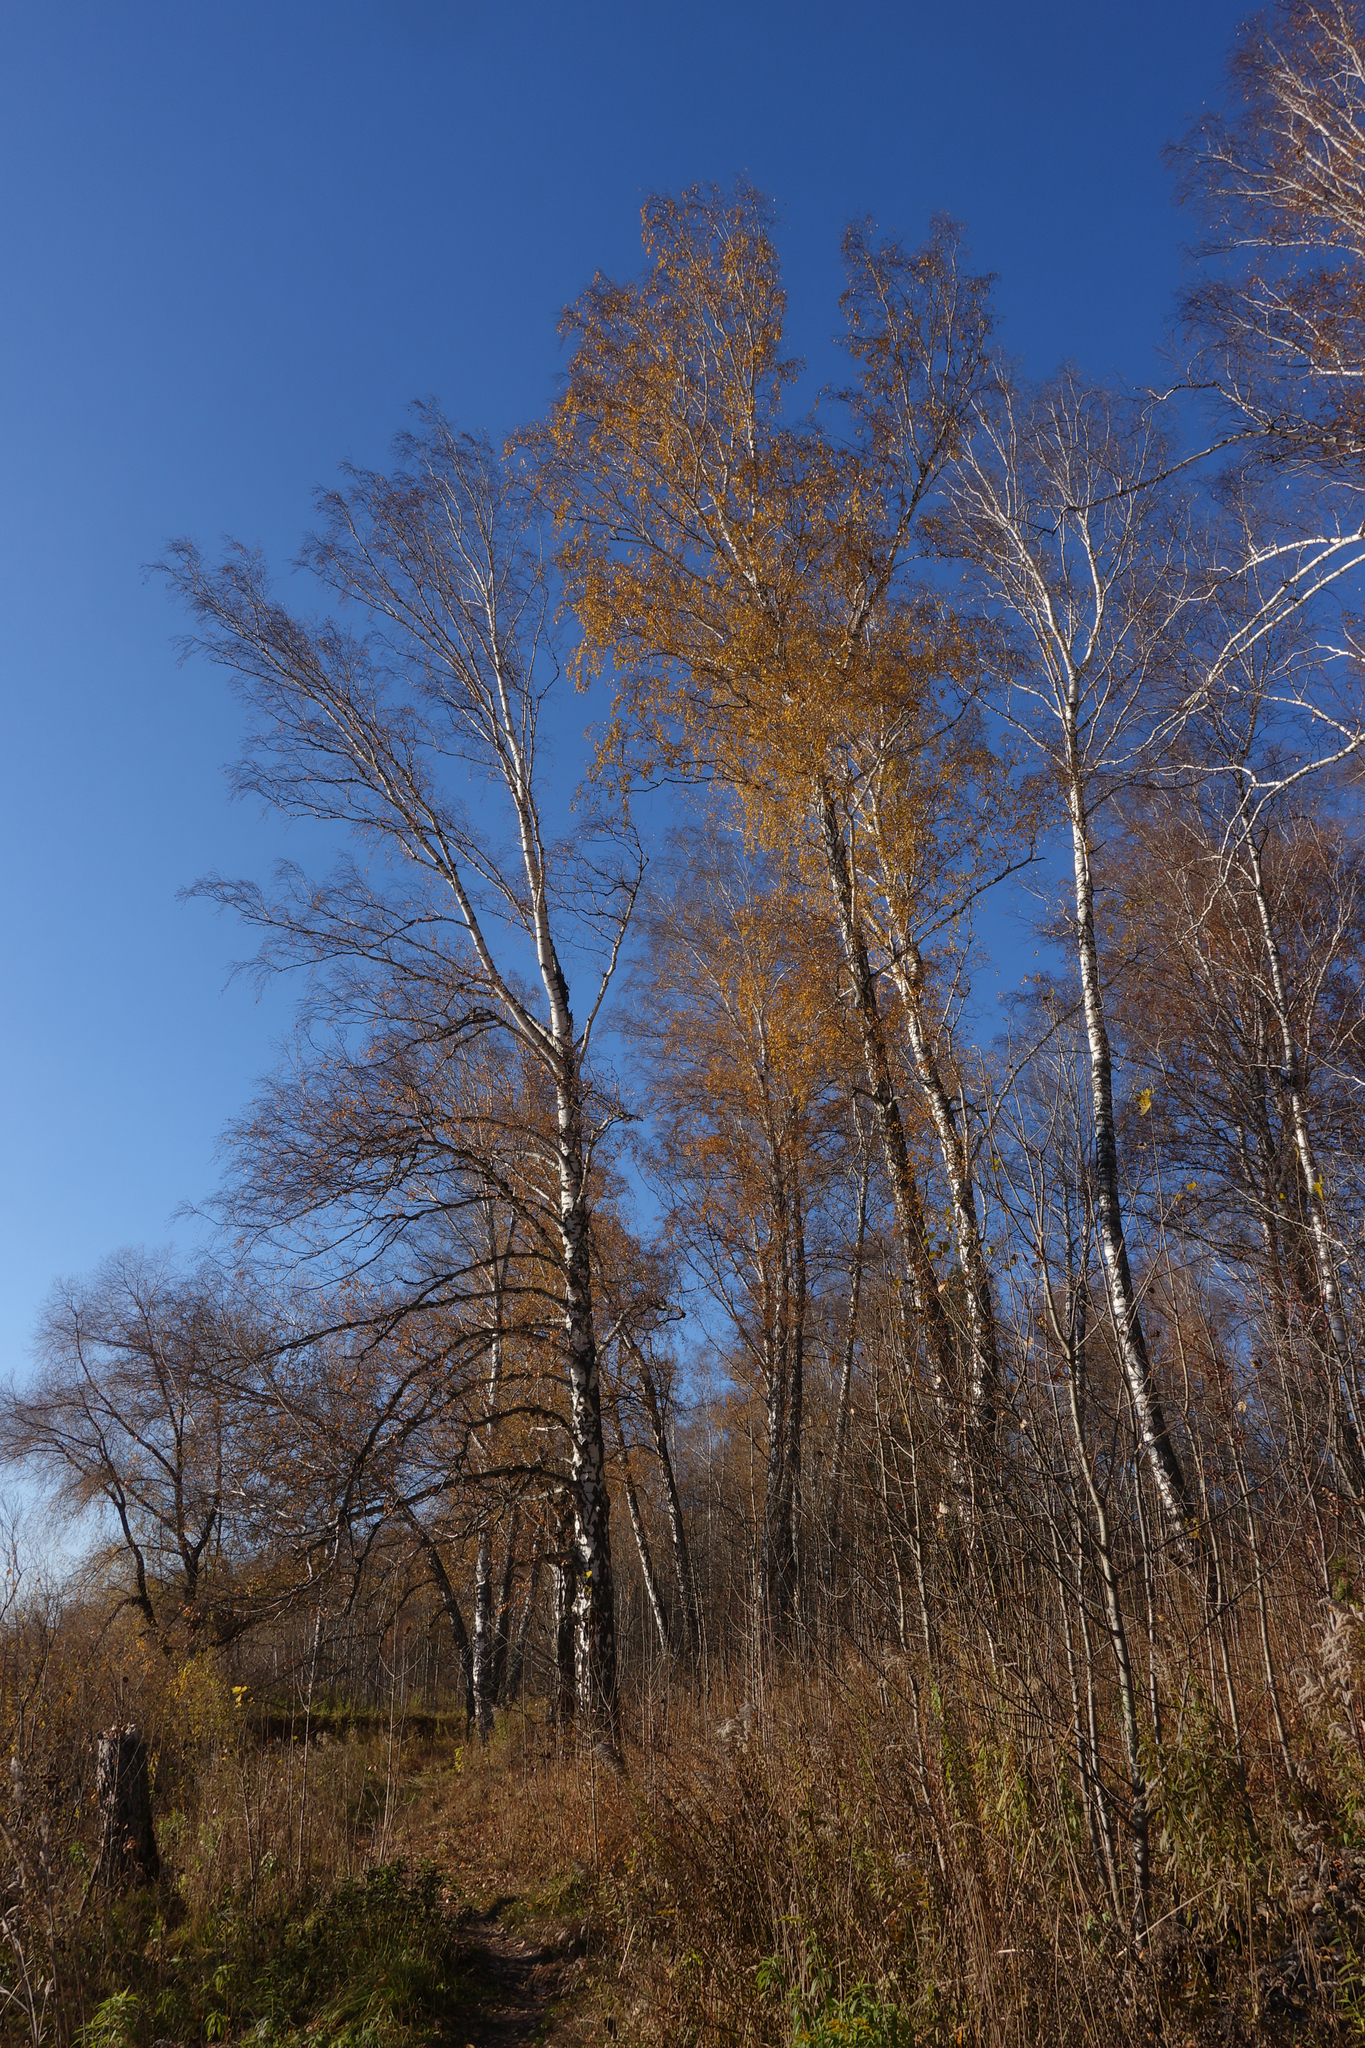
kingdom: Plantae
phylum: Tracheophyta
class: Magnoliopsida
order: Fagales
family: Betulaceae
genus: Betula
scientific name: Betula pendula
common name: Silver birch
